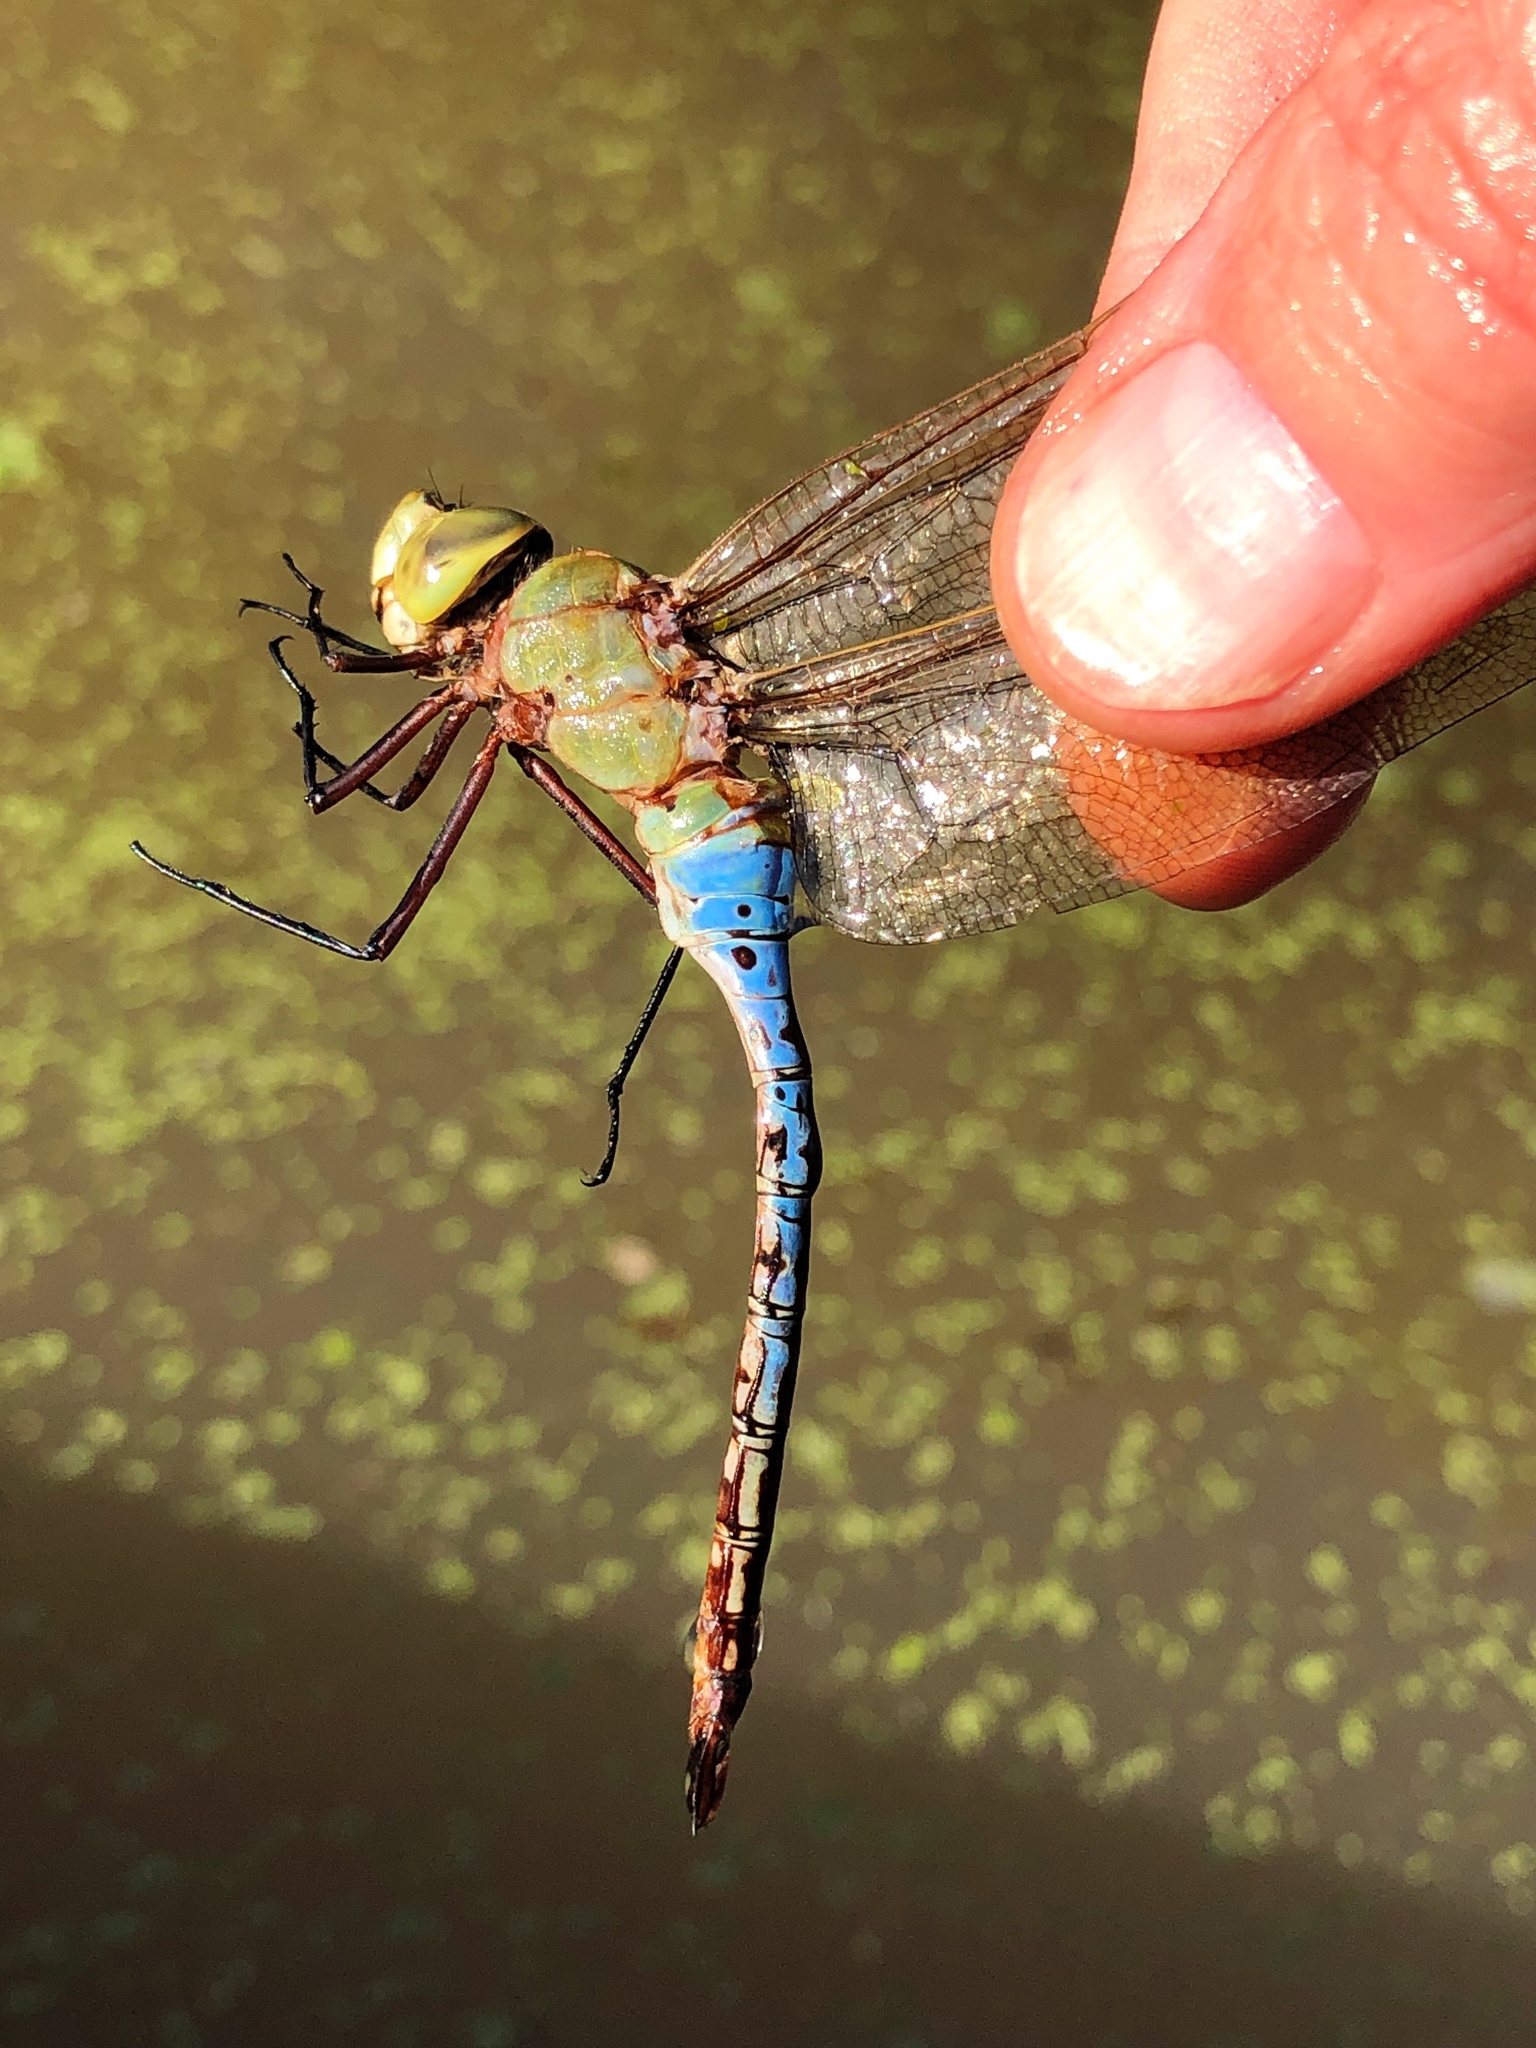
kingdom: Animalia
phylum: Arthropoda
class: Insecta
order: Odonata
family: Aeshnidae
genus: Anax
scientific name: Anax junius
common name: Common green darner
